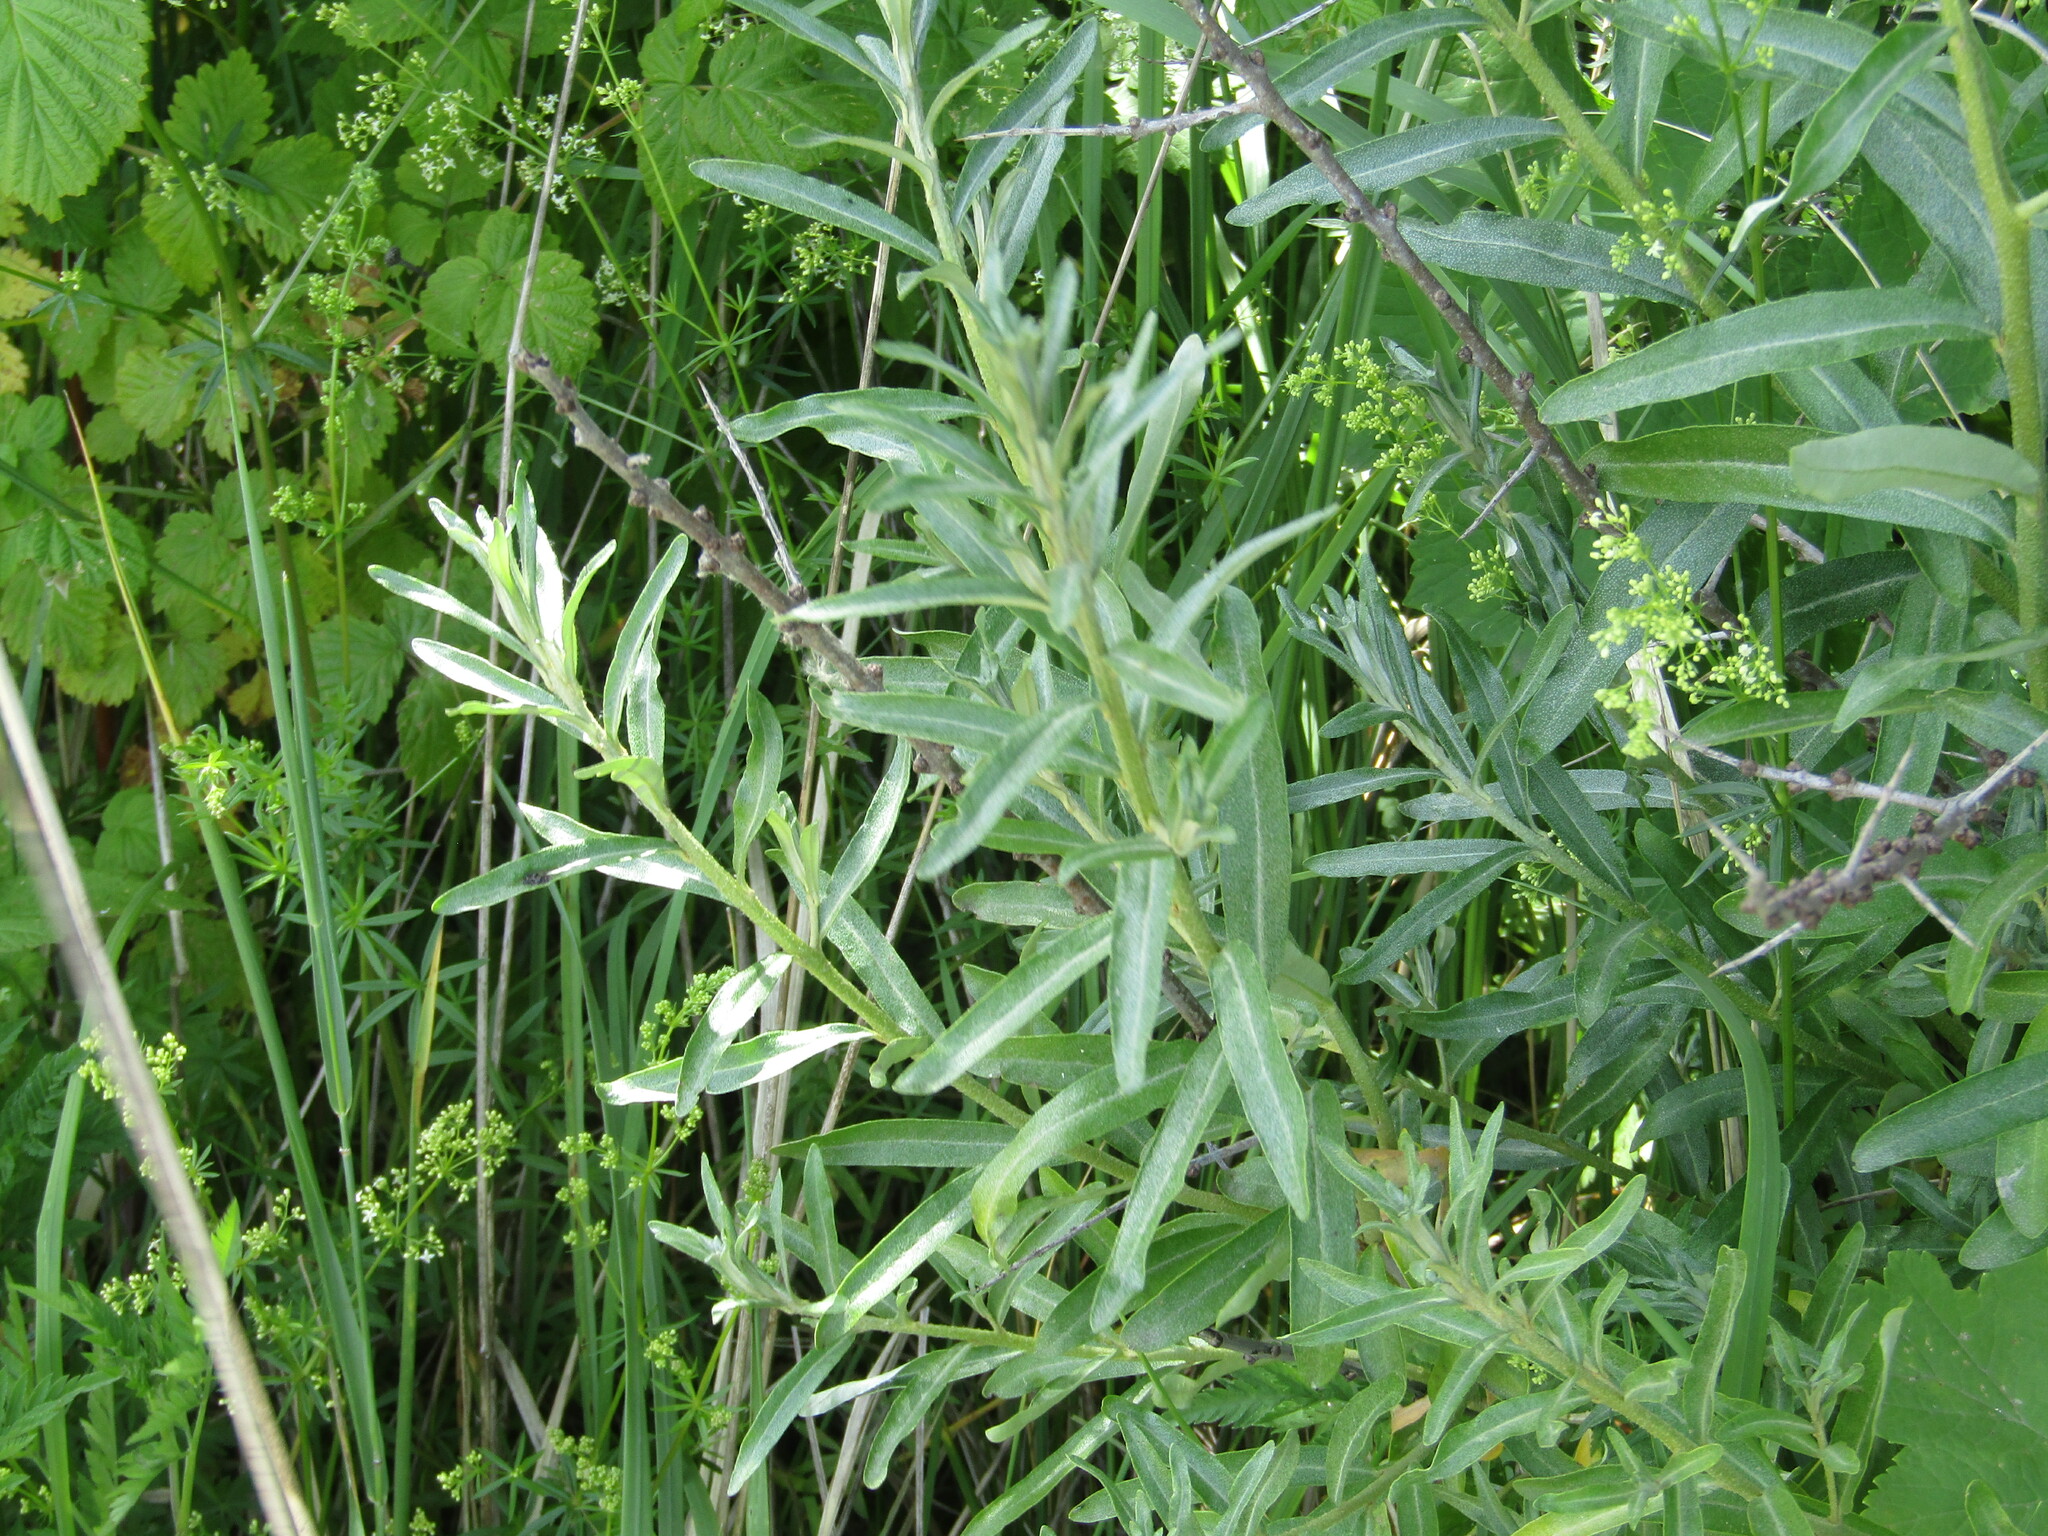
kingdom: Plantae
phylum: Tracheophyta
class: Magnoliopsida
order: Rosales
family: Elaeagnaceae
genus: Hippophae
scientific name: Hippophae rhamnoides
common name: Sea-buckthorn
